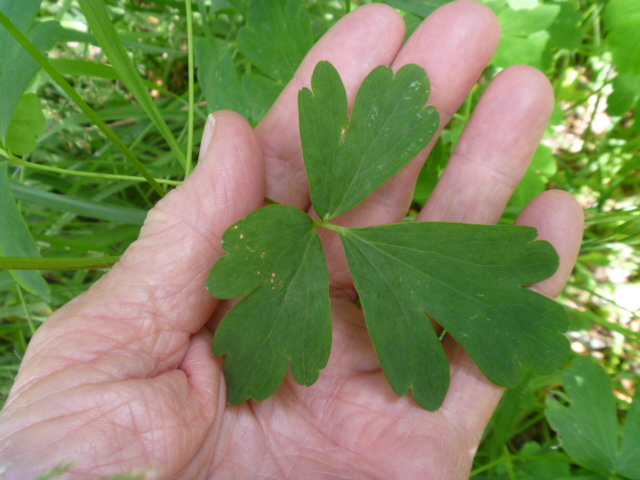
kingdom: Plantae
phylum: Tracheophyta
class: Magnoliopsida
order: Ranunculales
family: Ranunculaceae
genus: Aquilegia
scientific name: Aquilegia oxysepala
